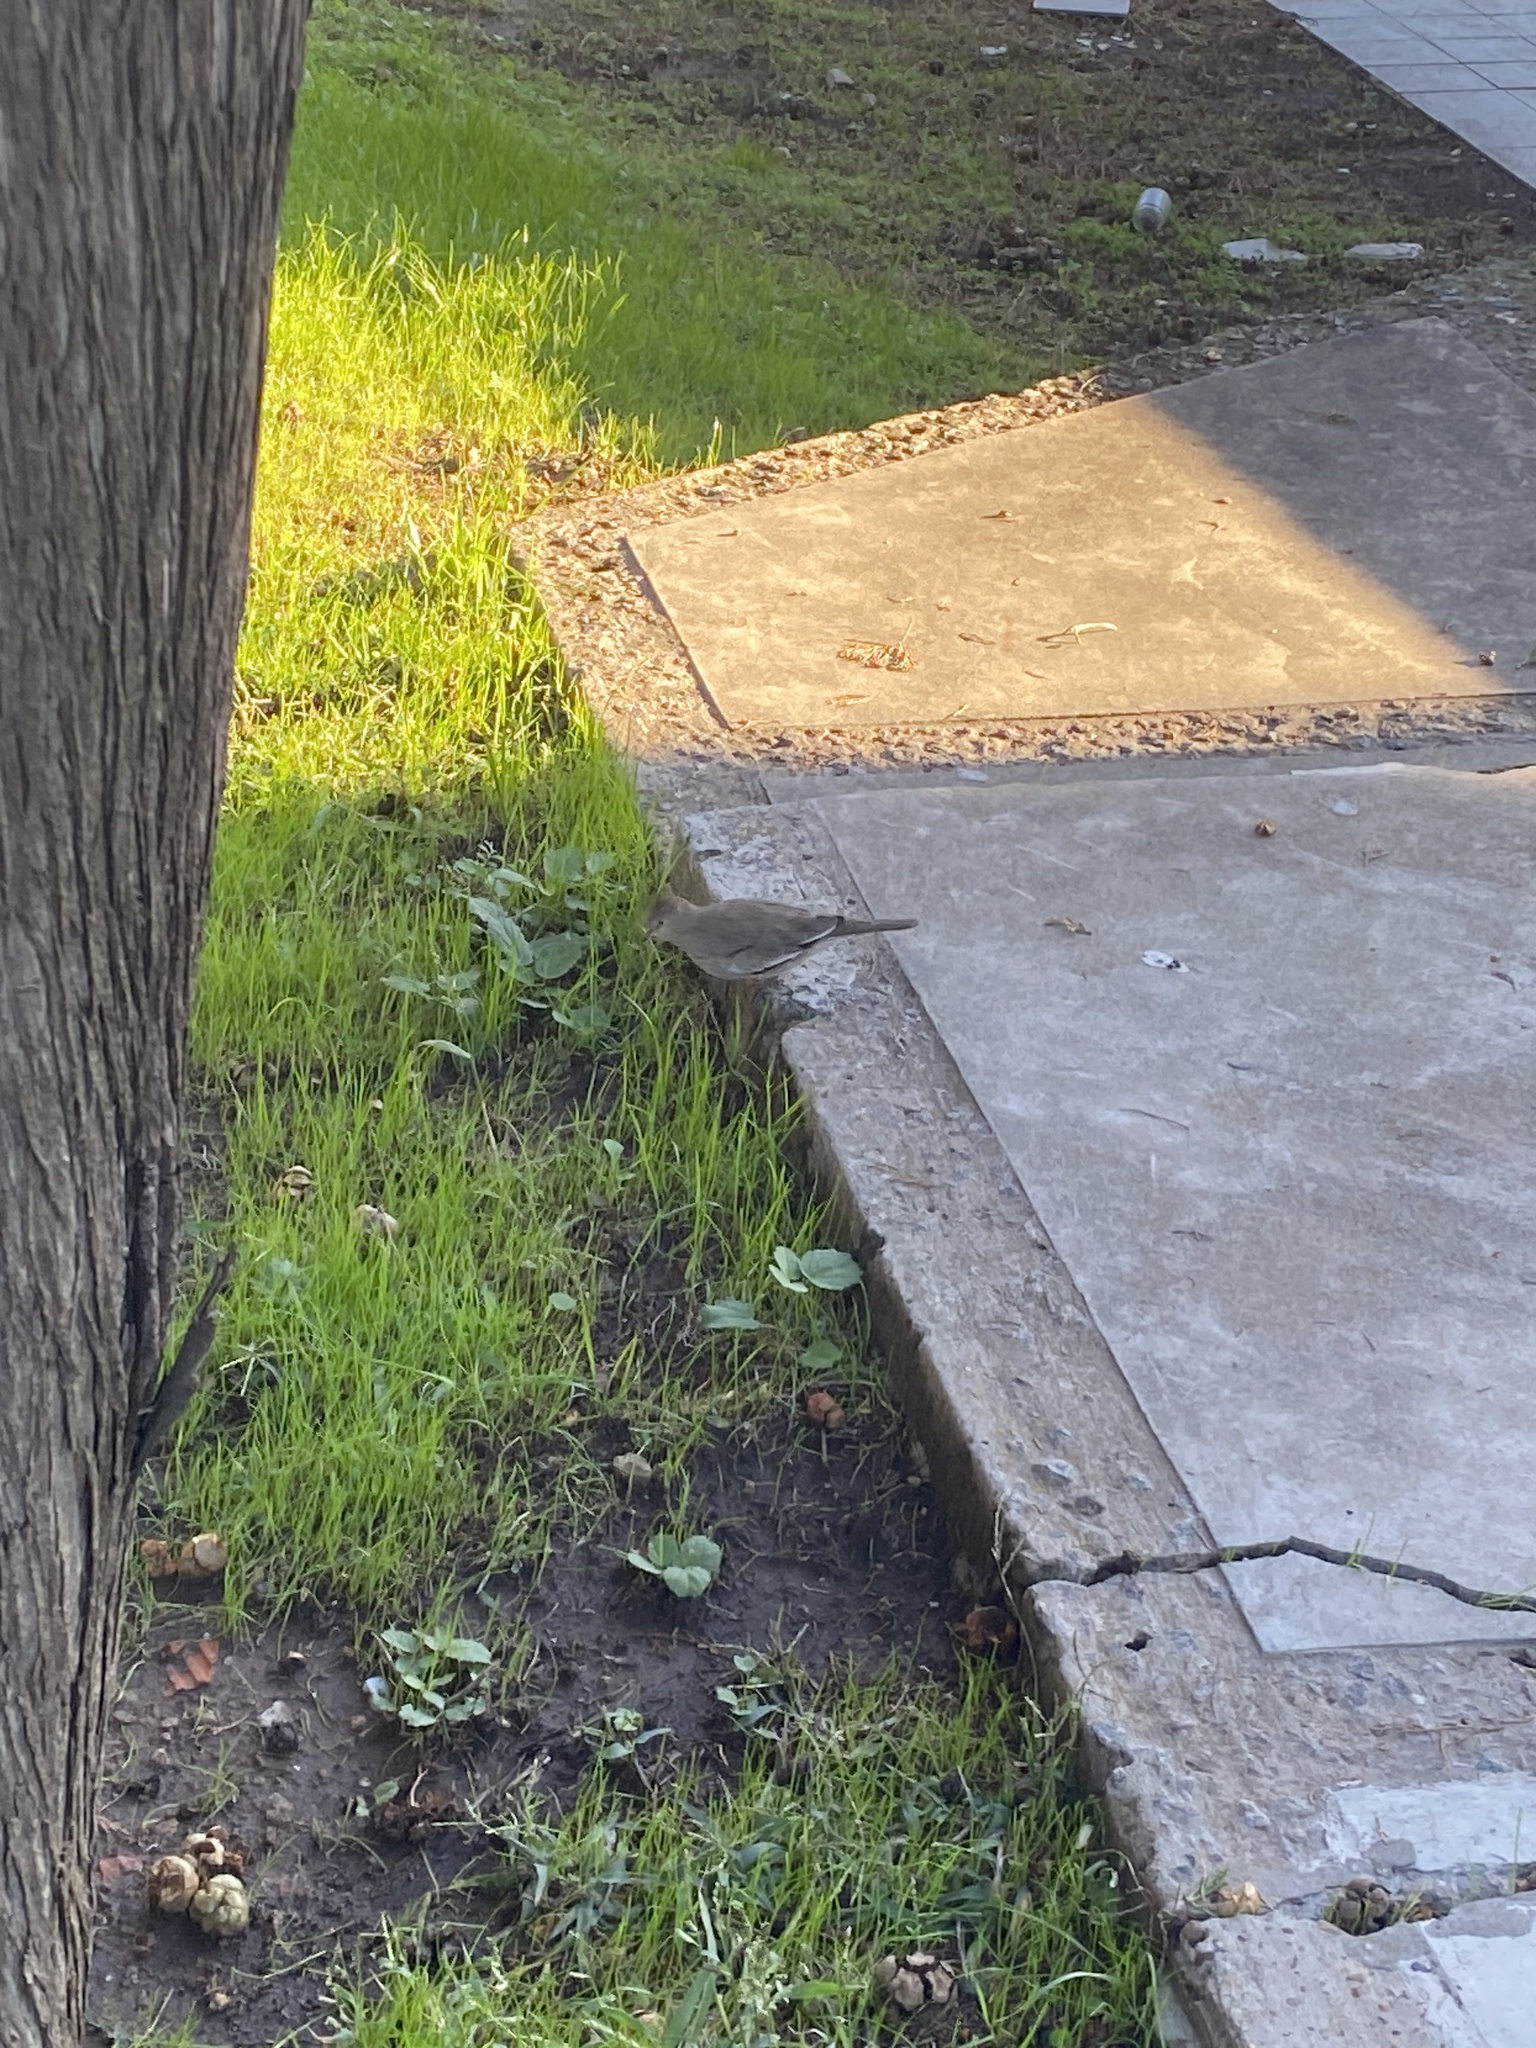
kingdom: Animalia
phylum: Chordata
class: Aves
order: Columbiformes
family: Columbidae
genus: Columbina
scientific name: Columbina picui
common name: Picui ground dove
